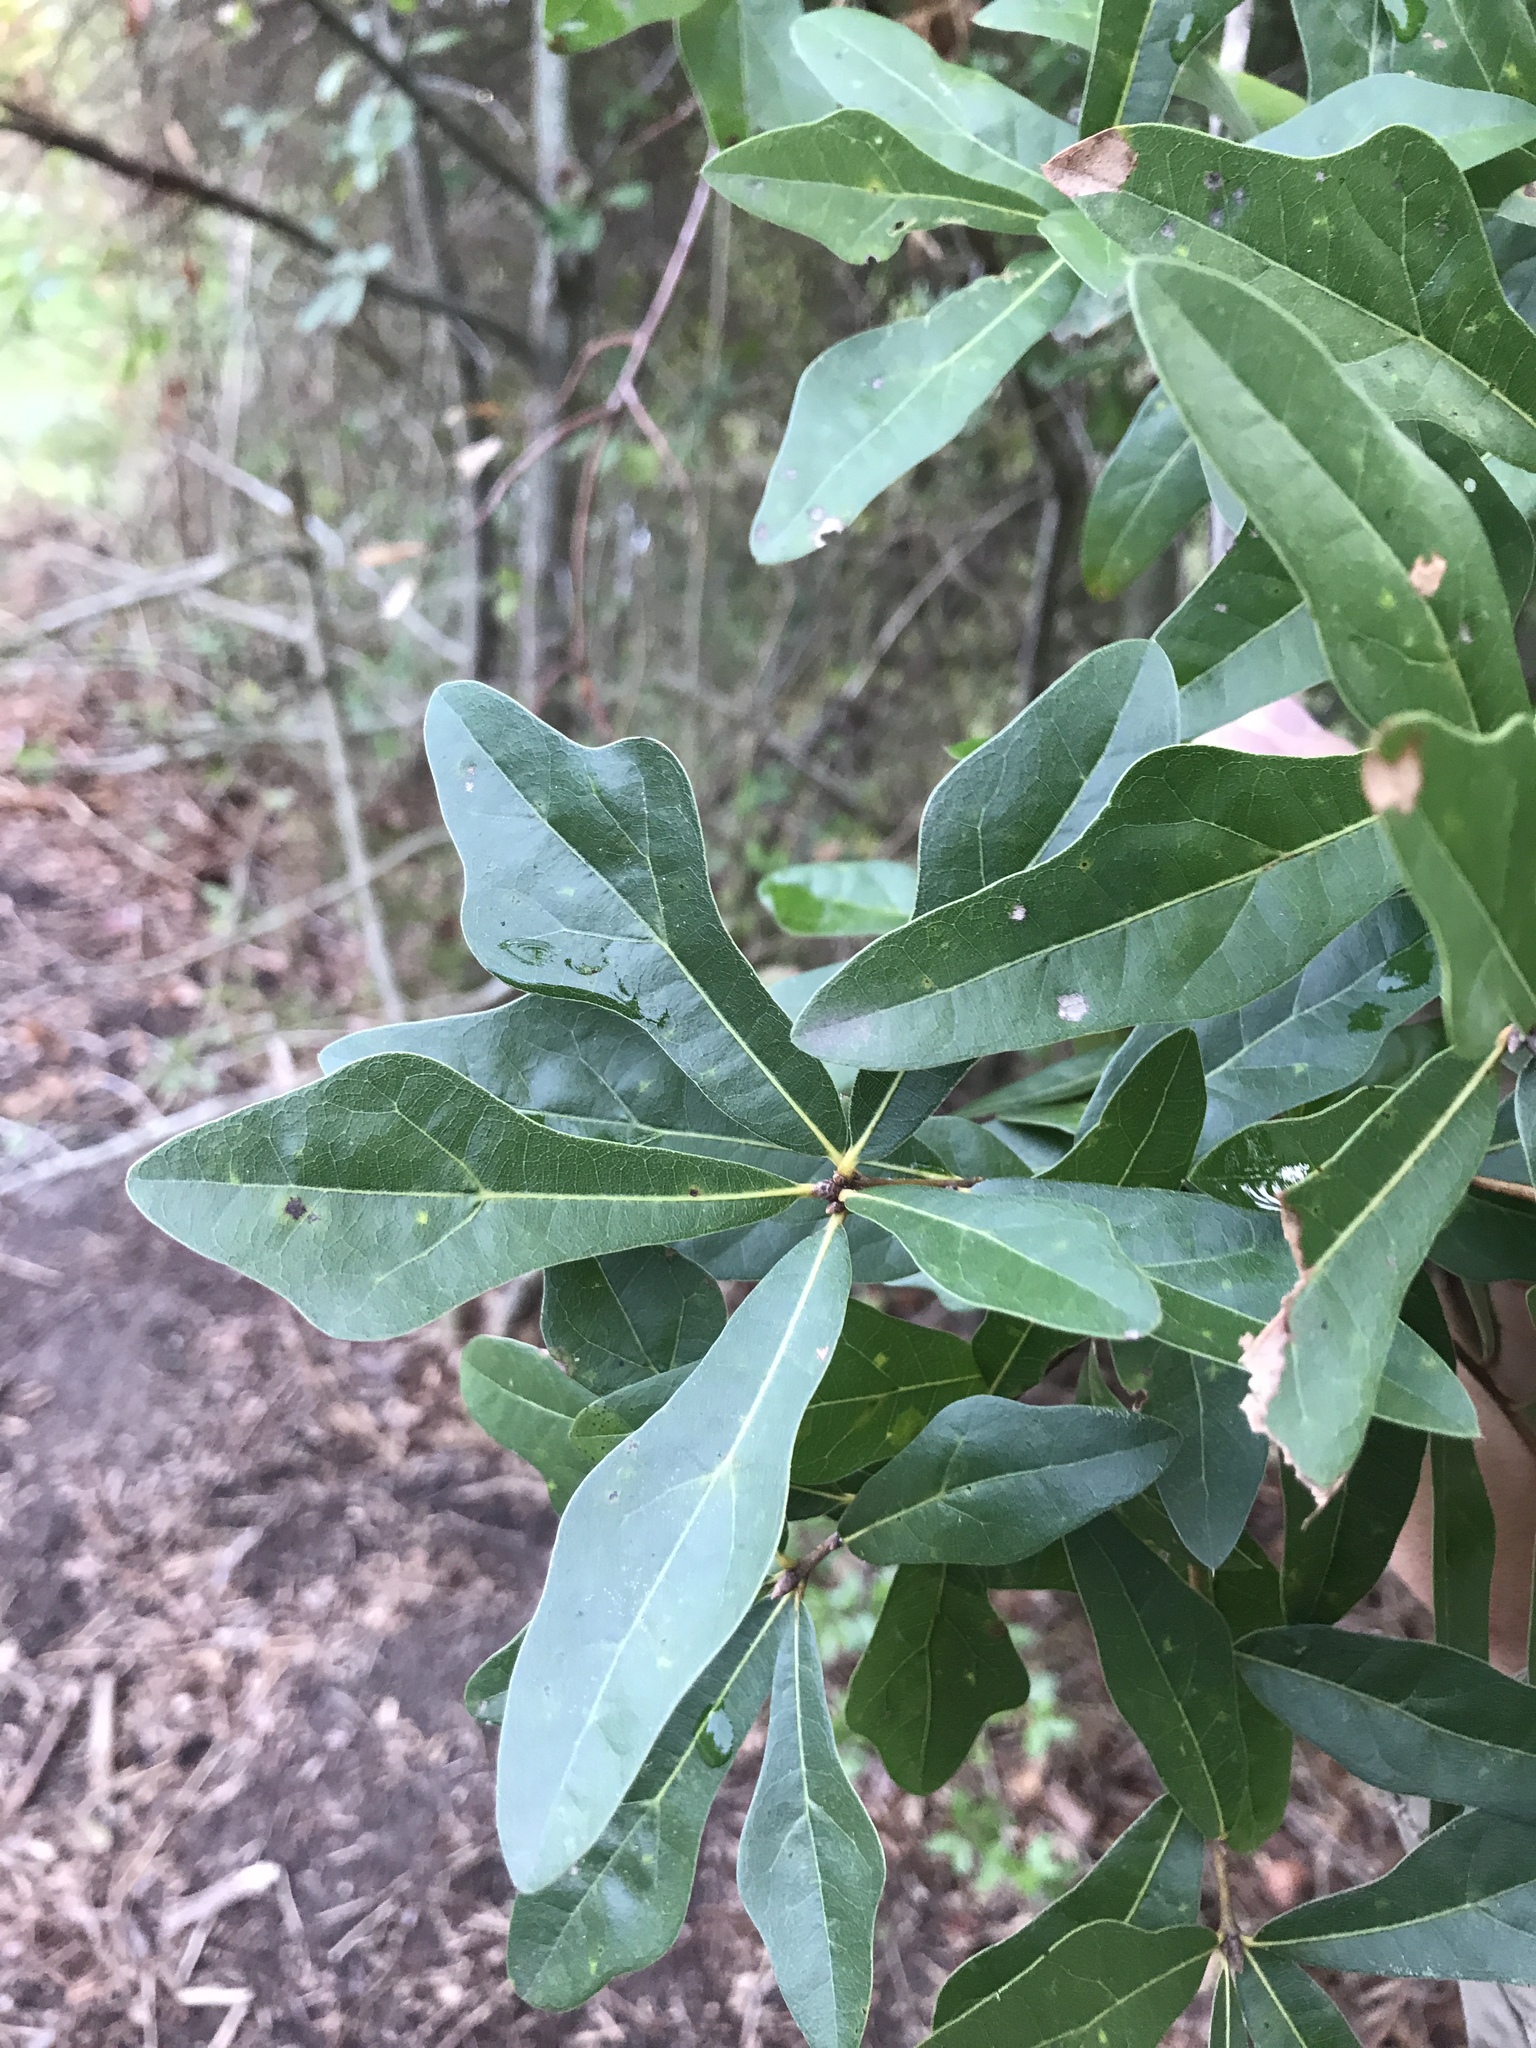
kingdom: Plantae
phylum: Tracheophyta
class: Magnoliopsida
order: Fagales
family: Fagaceae
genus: Quercus
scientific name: Quercus nigra
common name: Water oak
